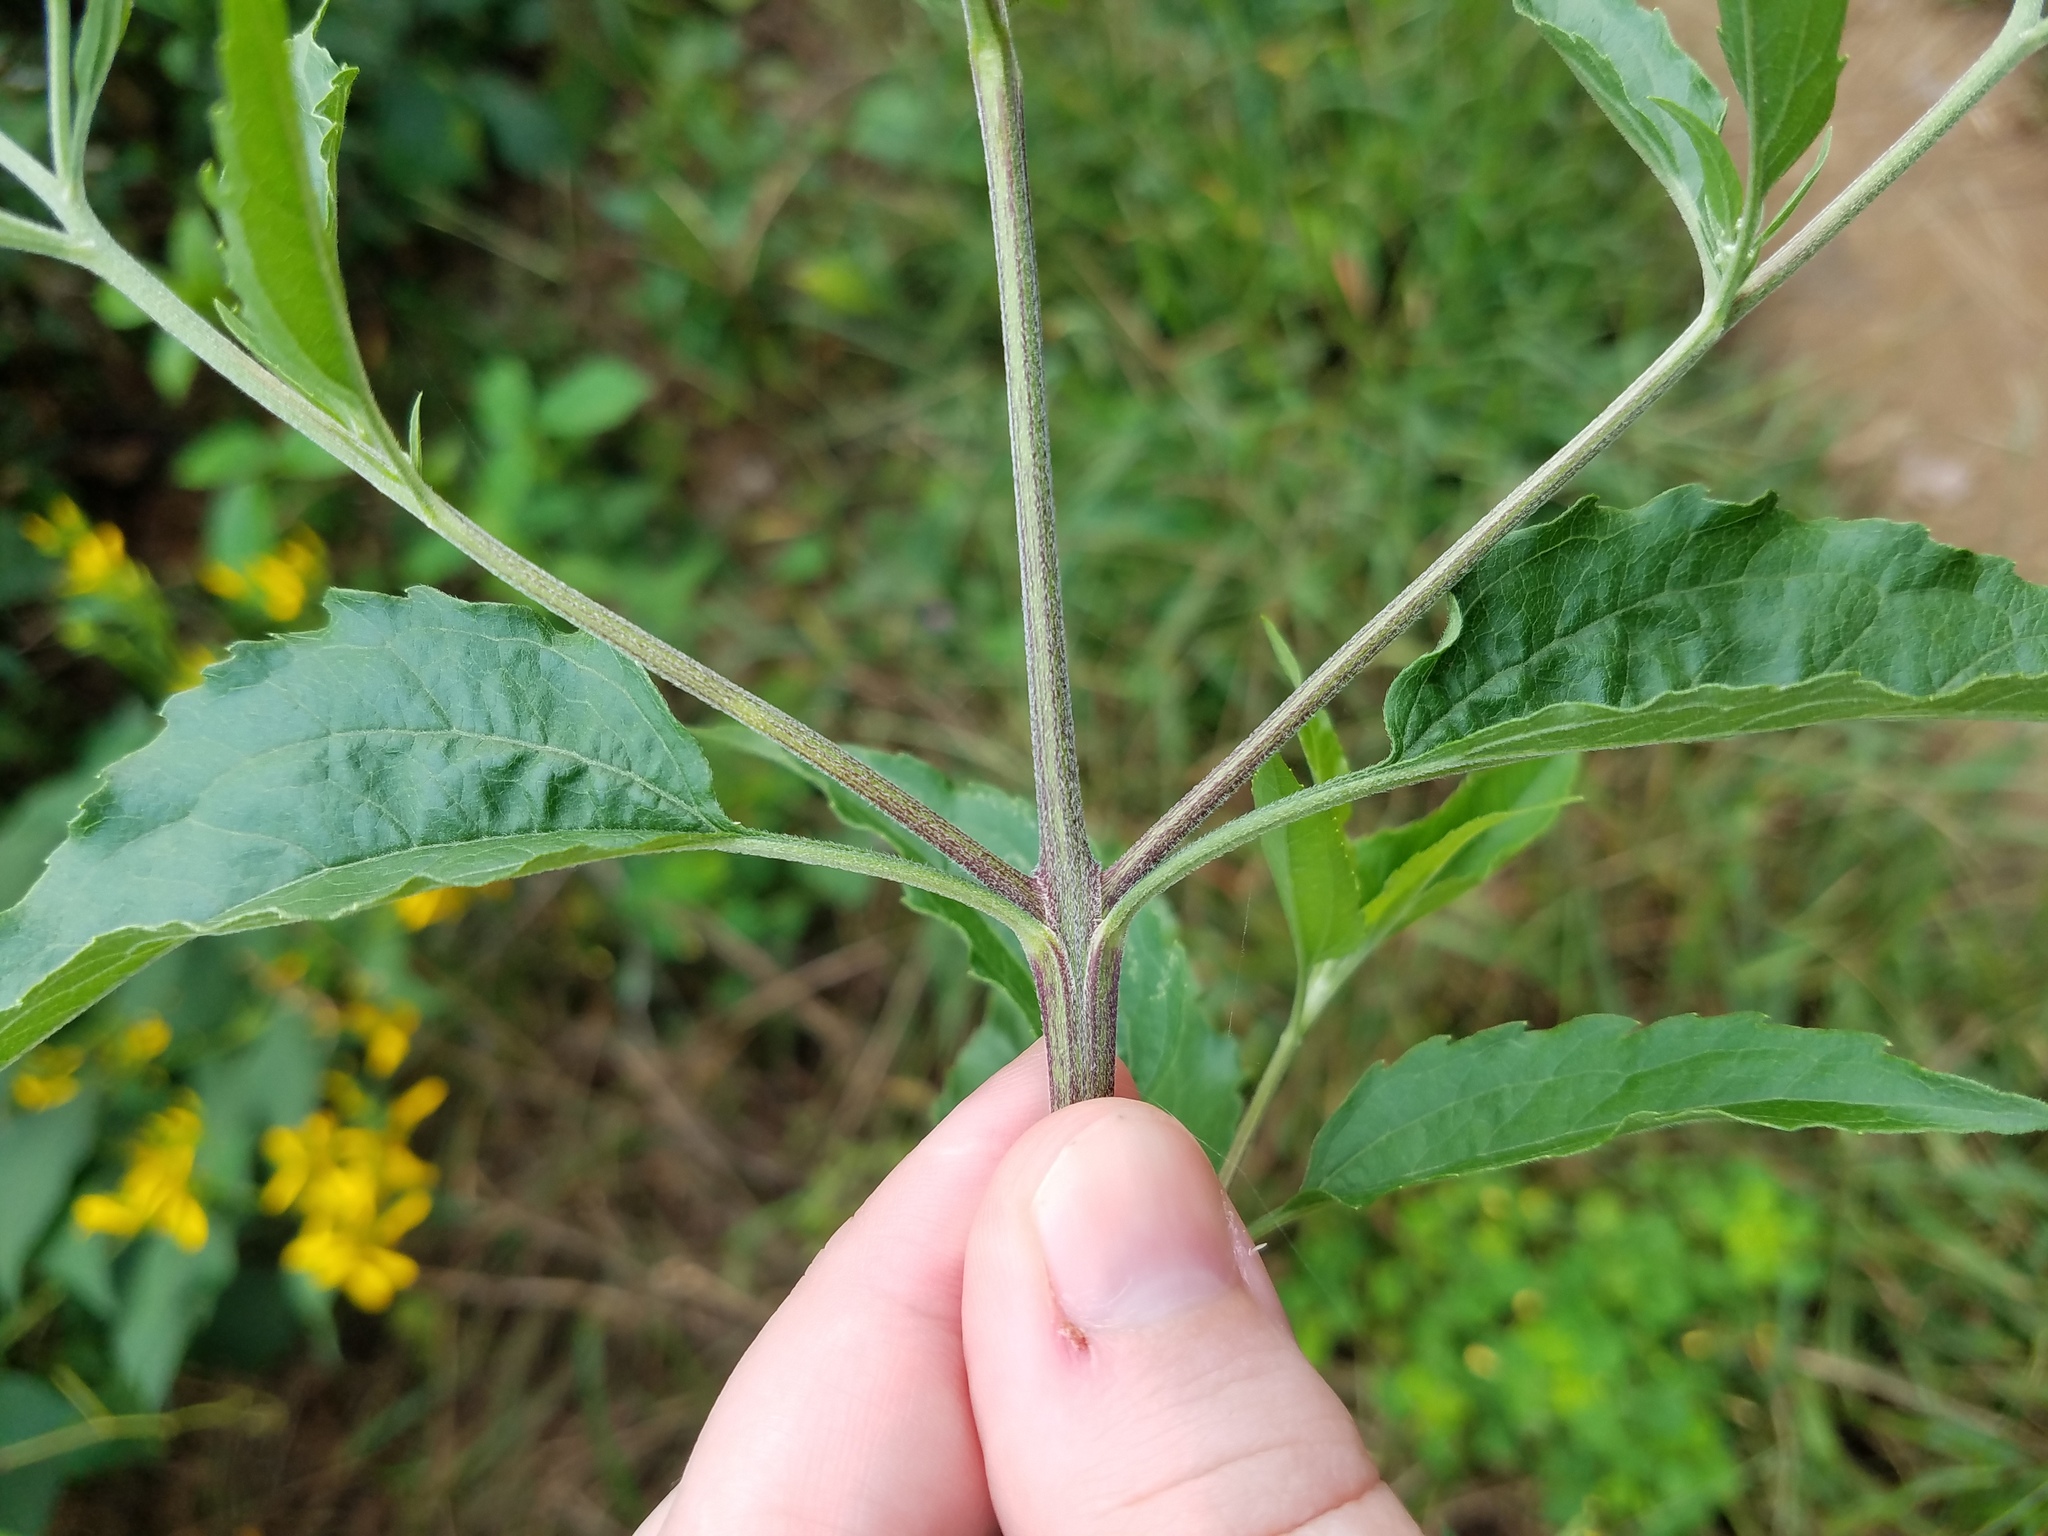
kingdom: Plantae
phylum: Tracheophyta
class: Magnoliopsida
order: Asterales
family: Asteraceae
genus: Eupatorium
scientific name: Eupatorium serotinum
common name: Late boneset
